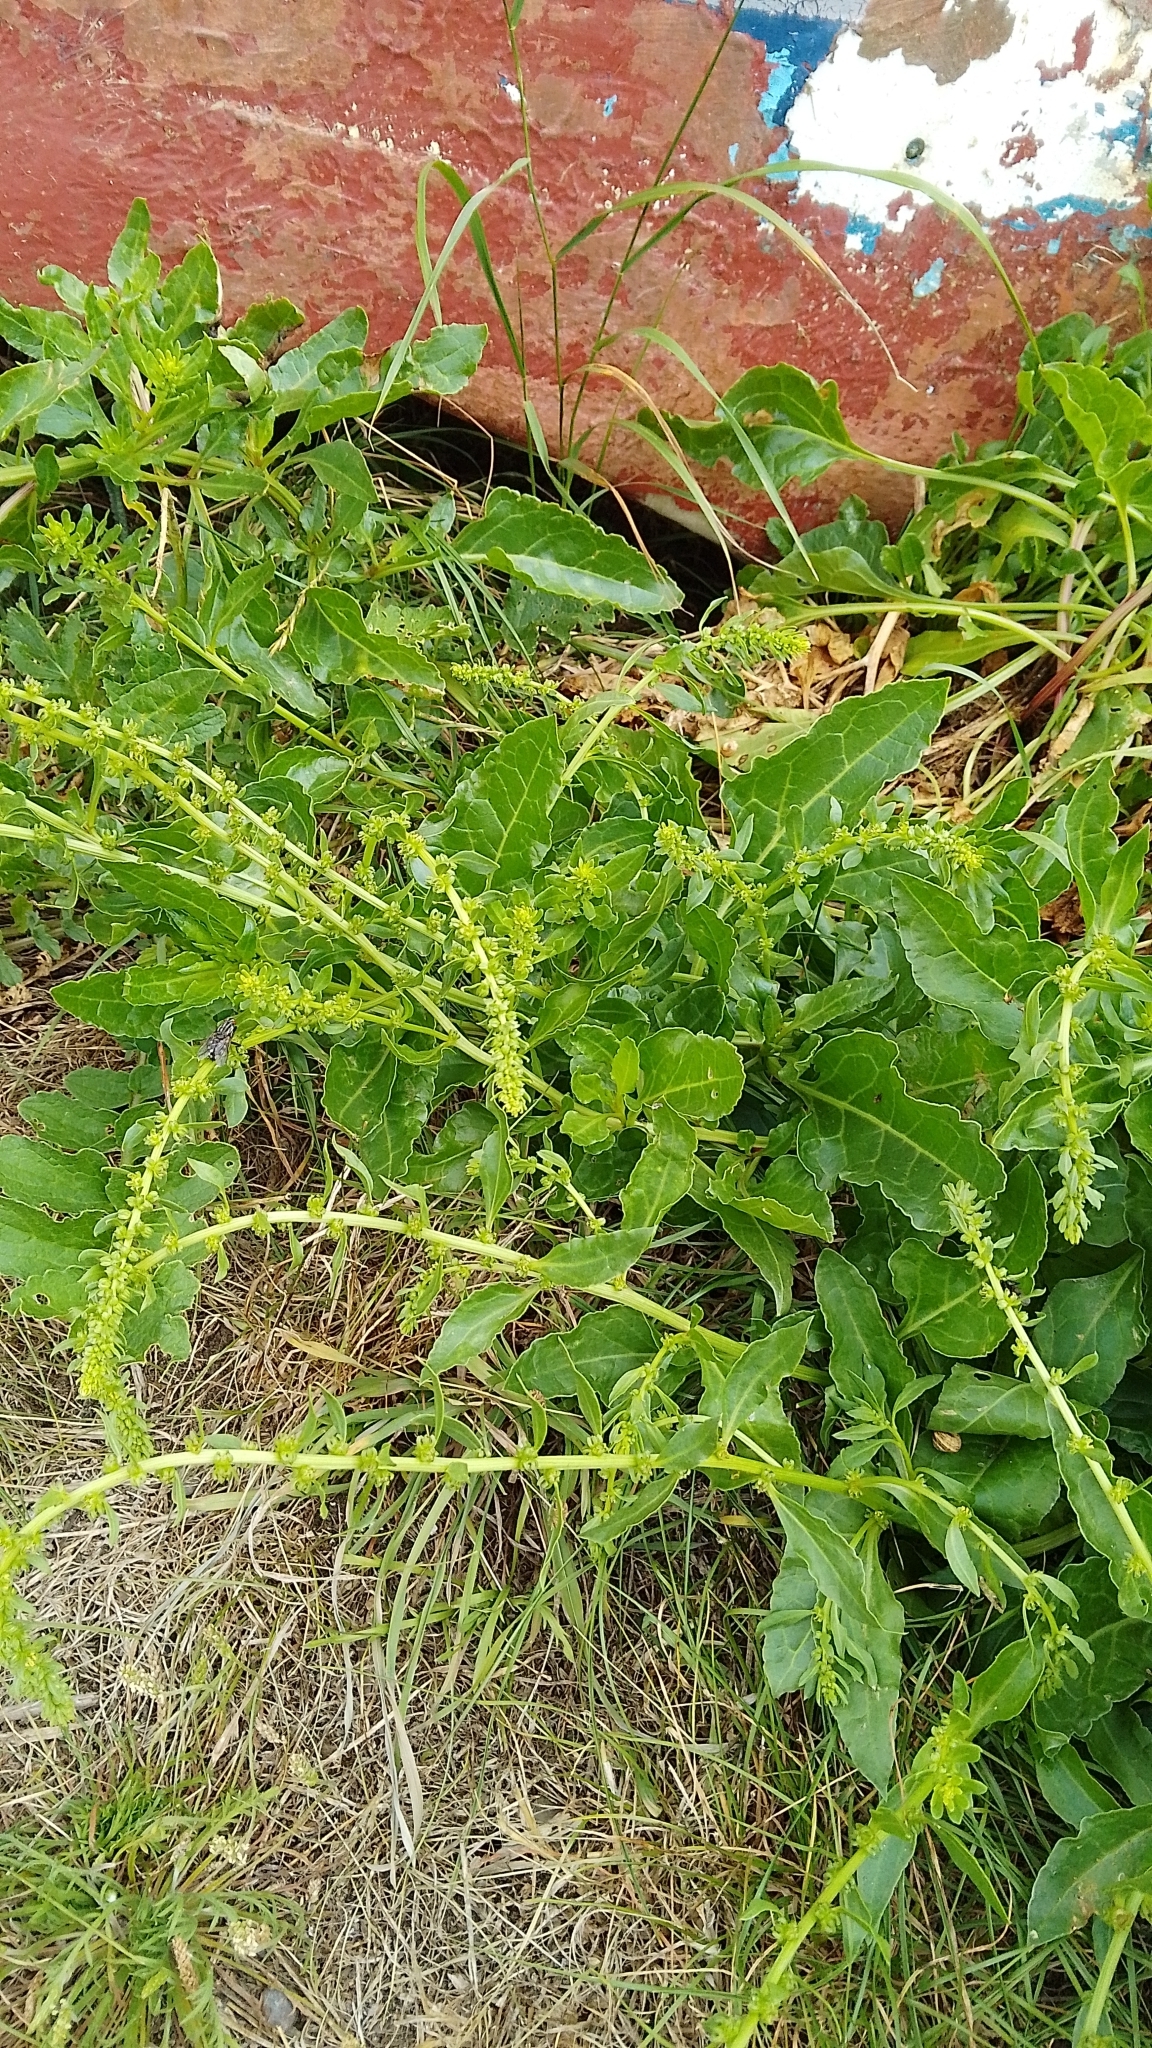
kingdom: Plantae
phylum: Tracheophyta
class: Magnoliopsida
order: Caryophyllales
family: Amaranthaceae
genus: Beta
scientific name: Beta vulgaris
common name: Beet
